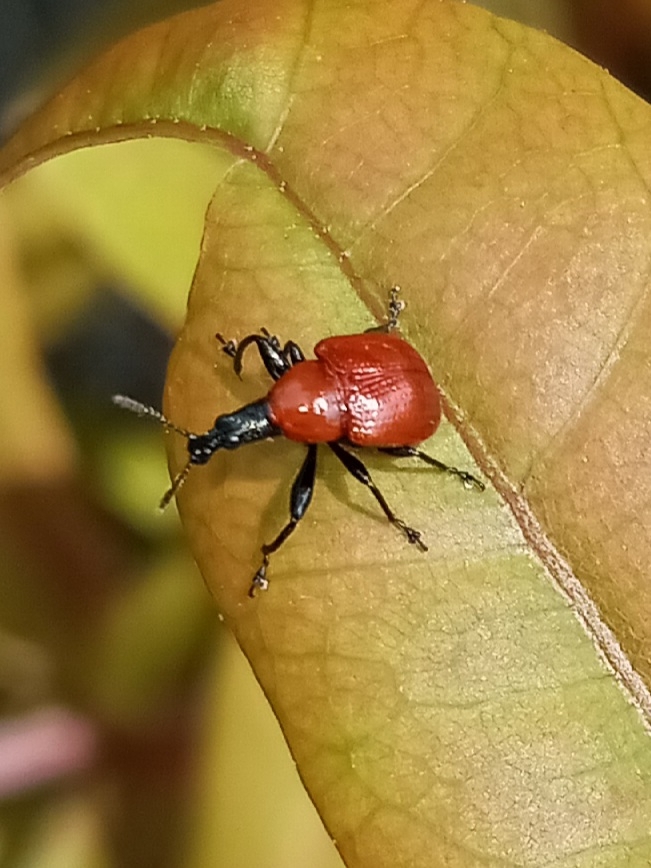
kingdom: Animalia
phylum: Arthropoda
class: Insecta
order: Coleoptera
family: Attelabidae
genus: Homoeolabus
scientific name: Homoeolabus analis
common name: Oak leaf rolling weevil
